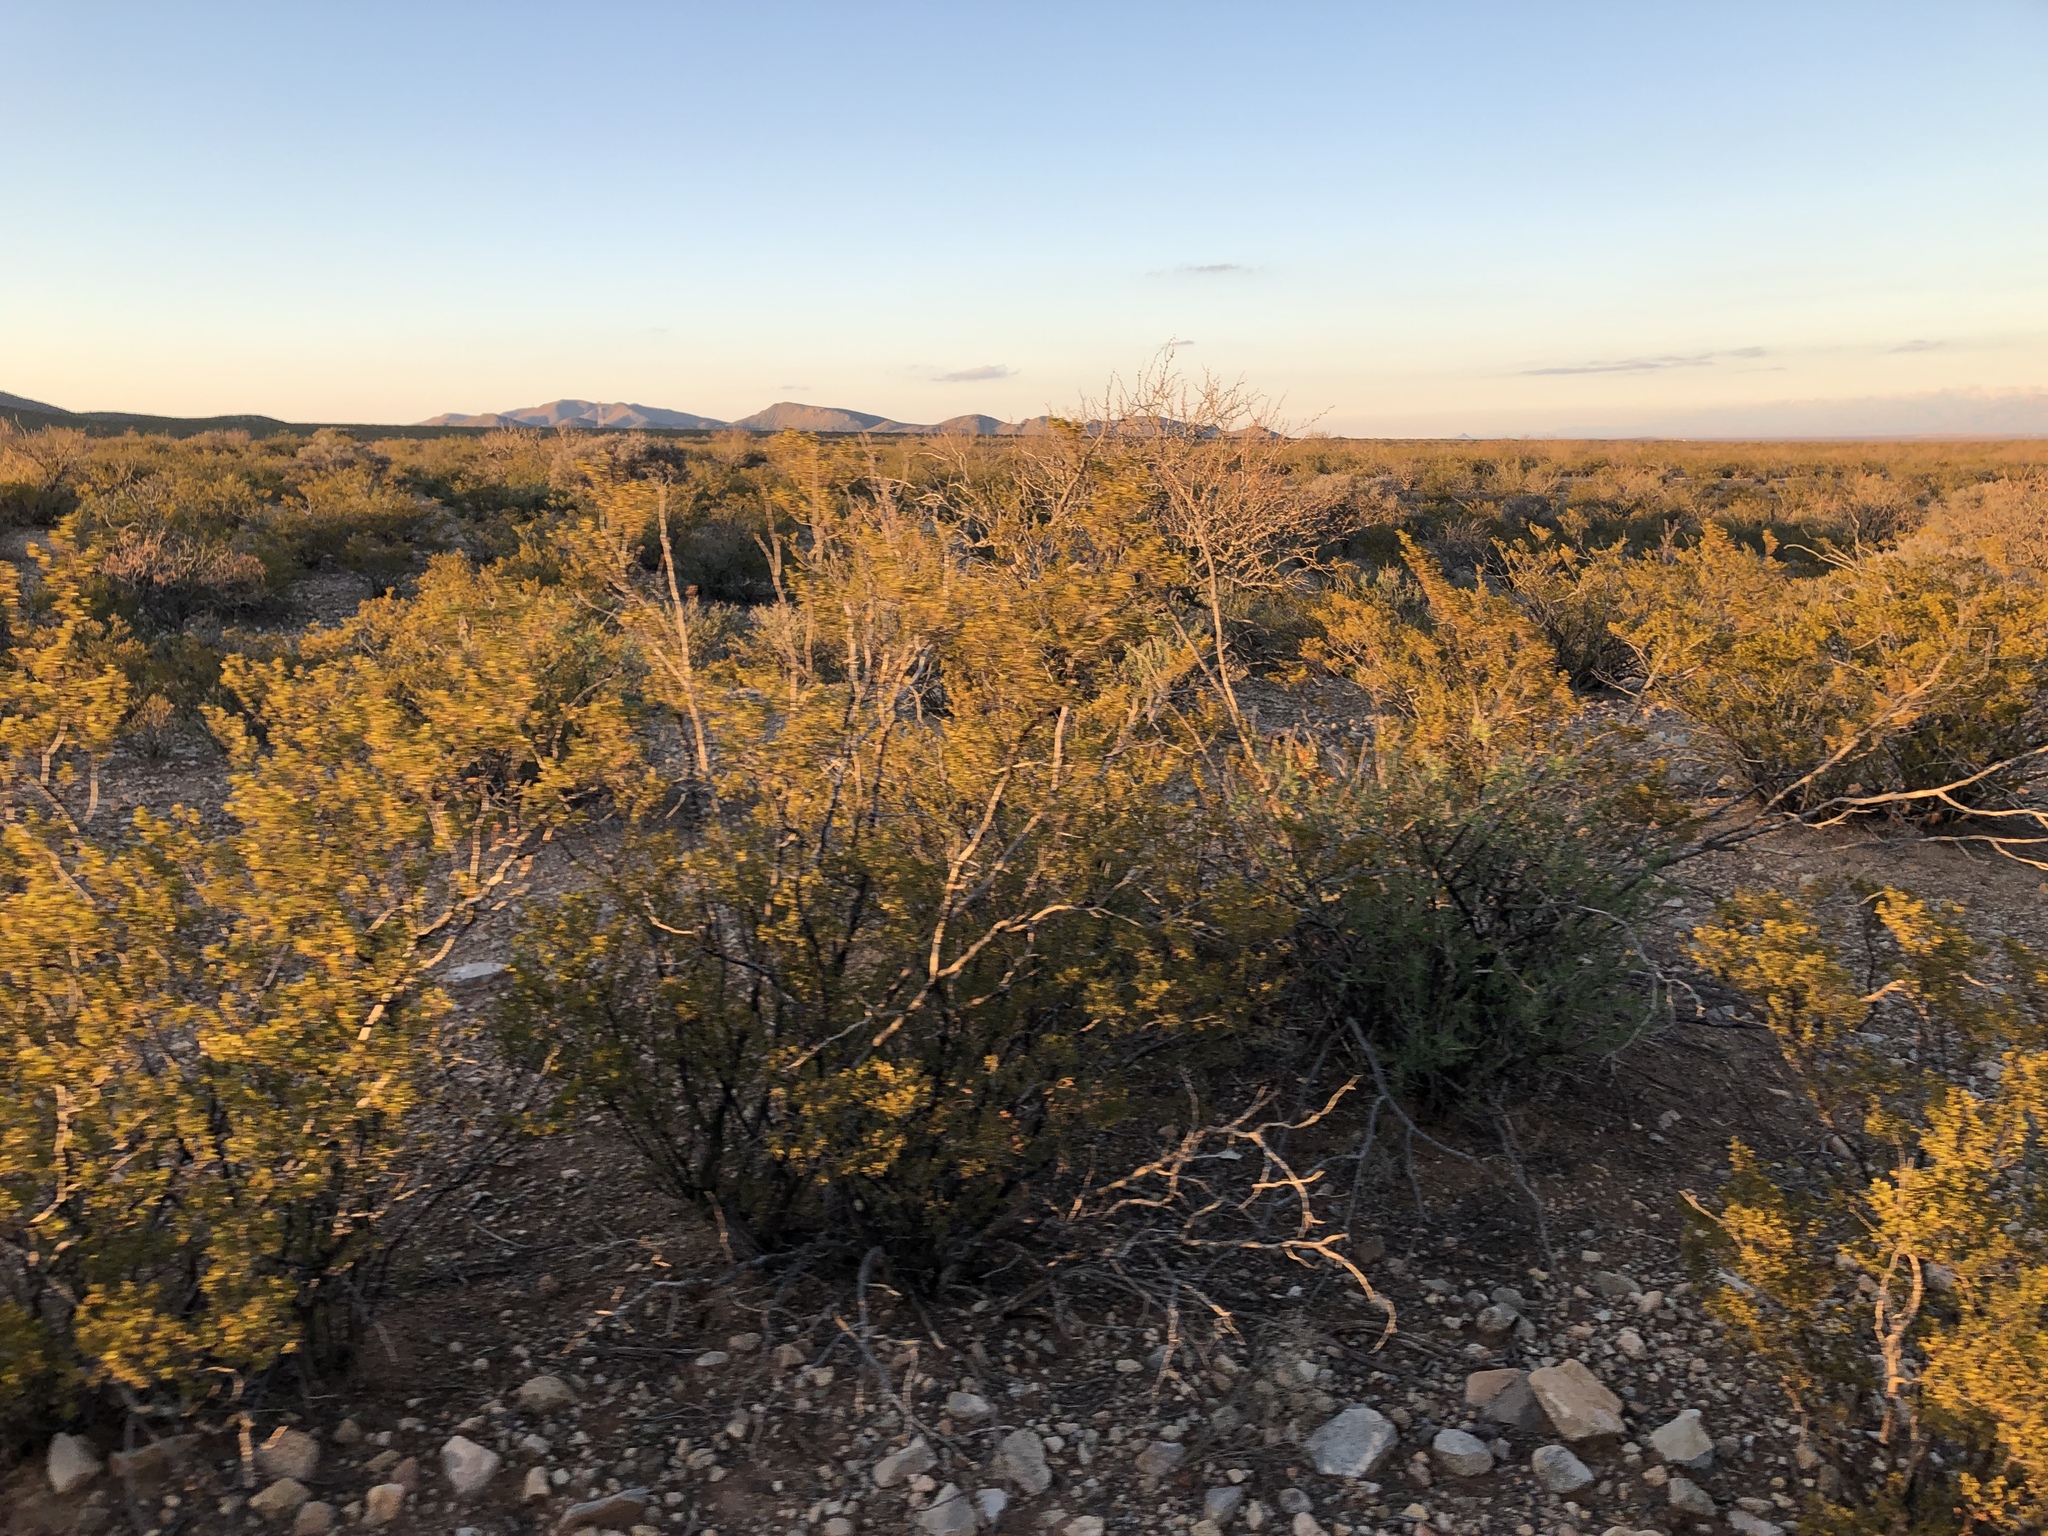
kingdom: Plantae
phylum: Tracheophyta
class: Magnoliopsida
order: Zygophyllales
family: Zygophyllaceae
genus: Larrea
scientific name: Larrea tridentata
